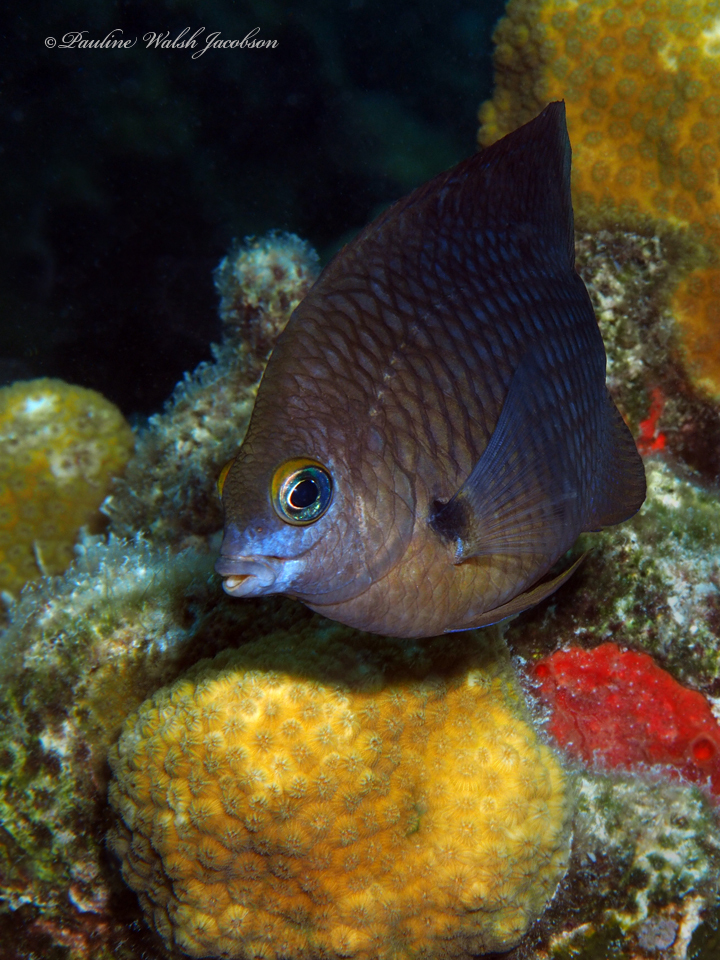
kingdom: Animalia
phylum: Chordata
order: Perciformes
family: Pomacentridae
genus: Stegastes
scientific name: Stegastes planifrons
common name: Threespot damselfish
